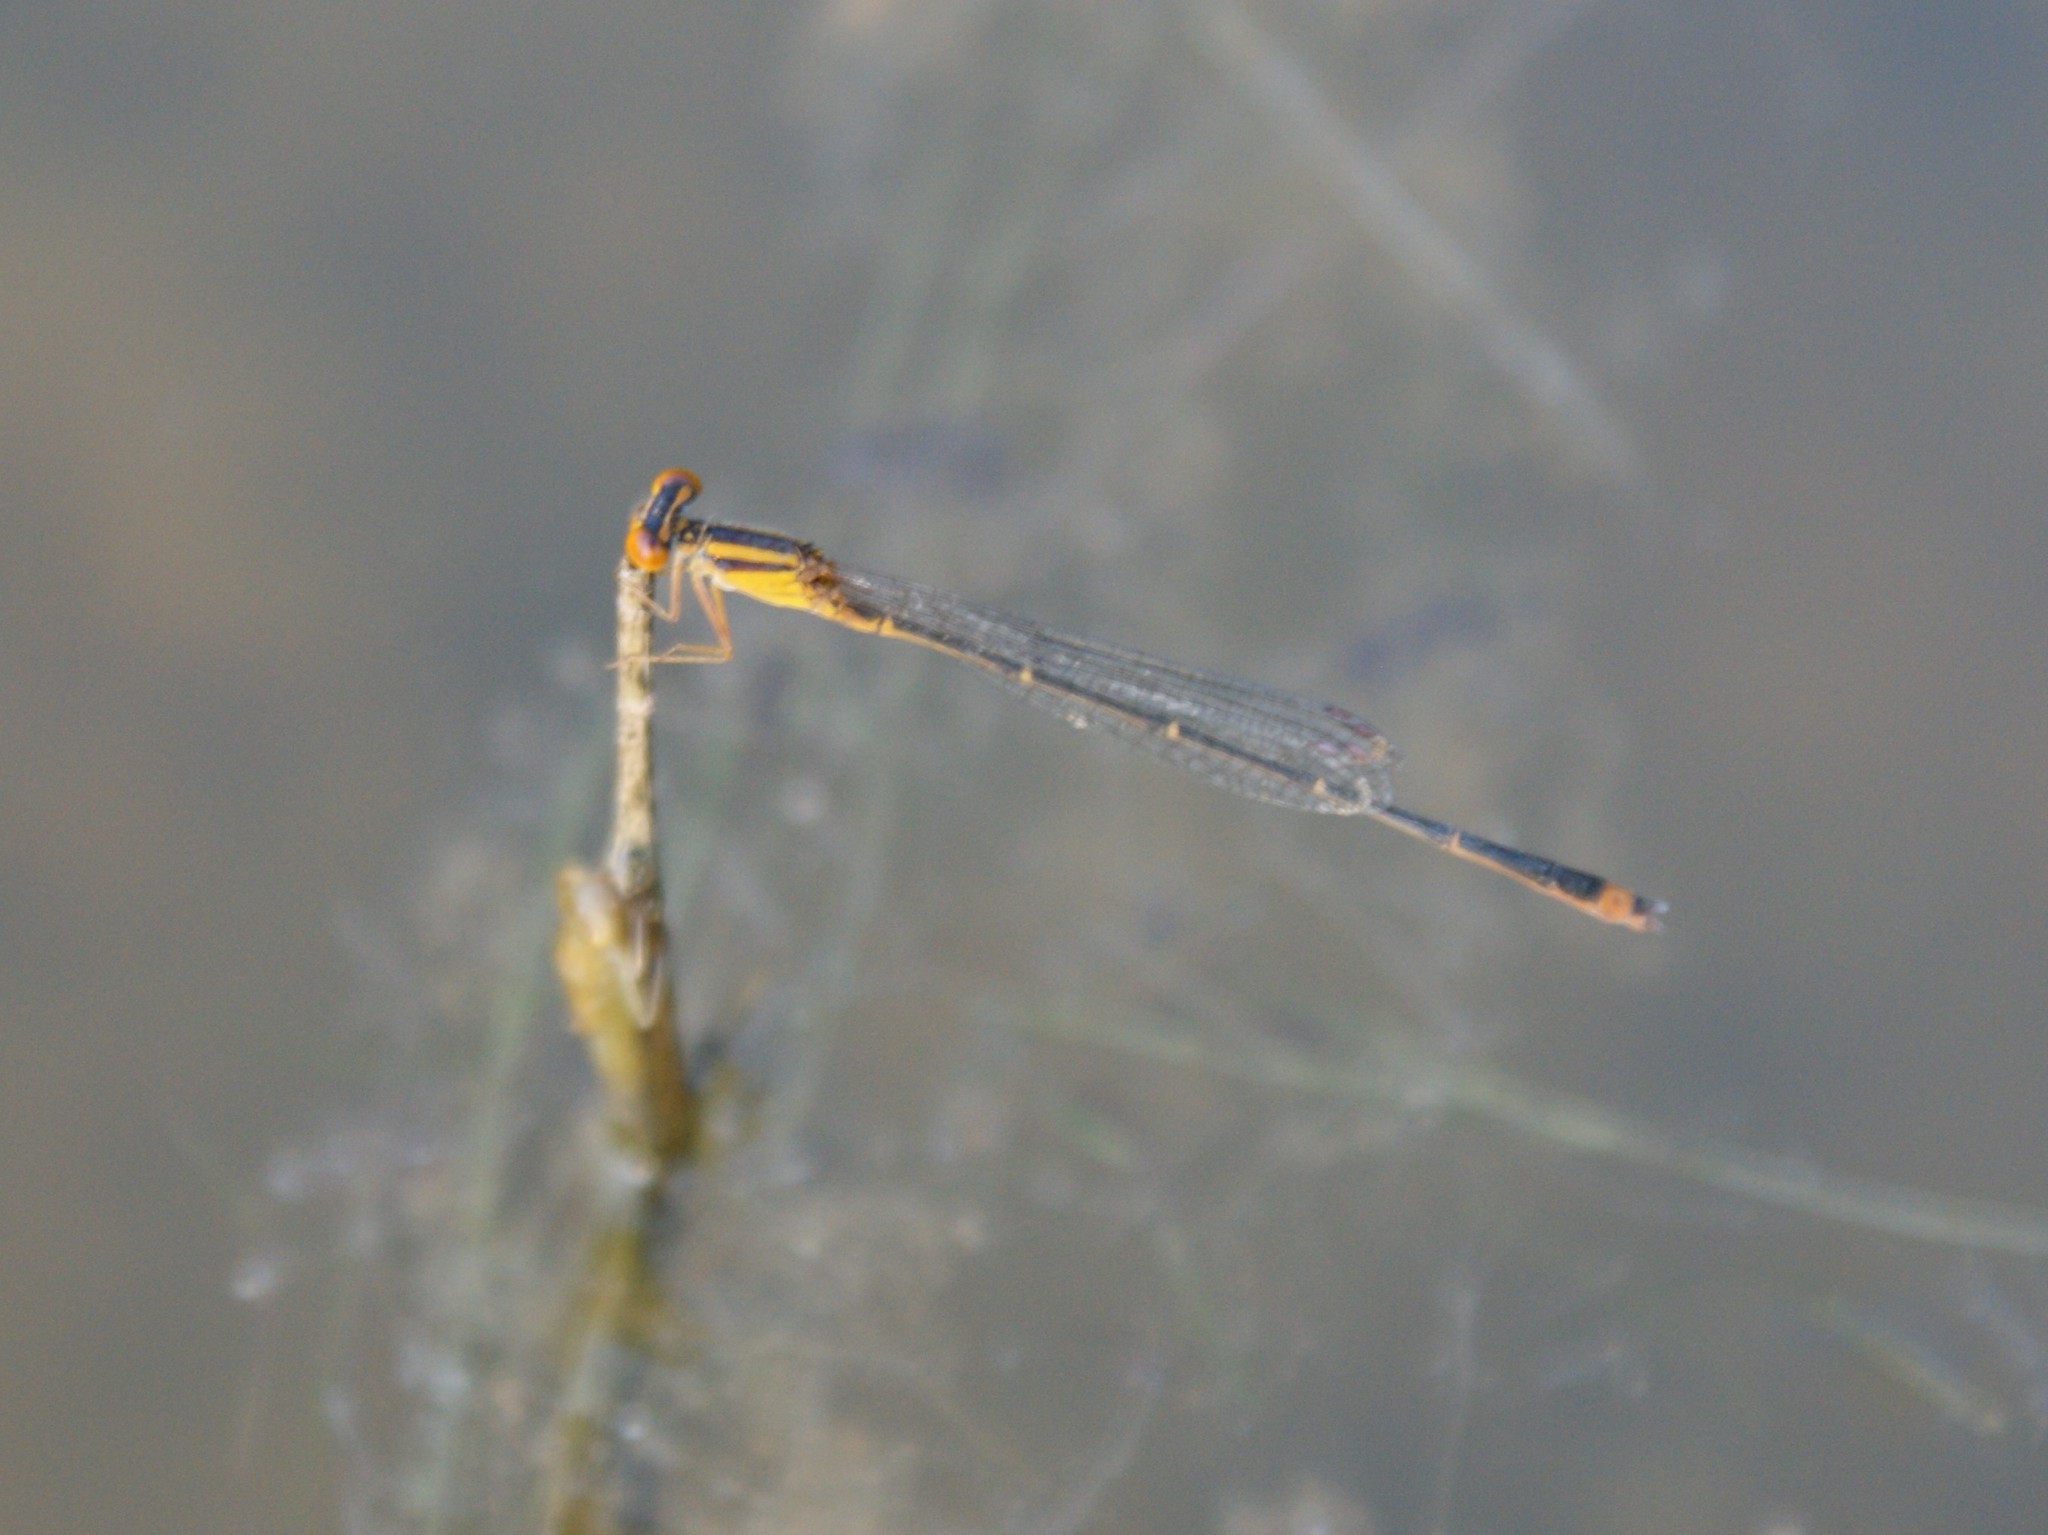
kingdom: Animalia
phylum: Arthropoda
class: Insecta
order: Odonata
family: Coenagrionidae
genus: Enallagma
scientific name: Enallagma signatum
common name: Orange bluet
